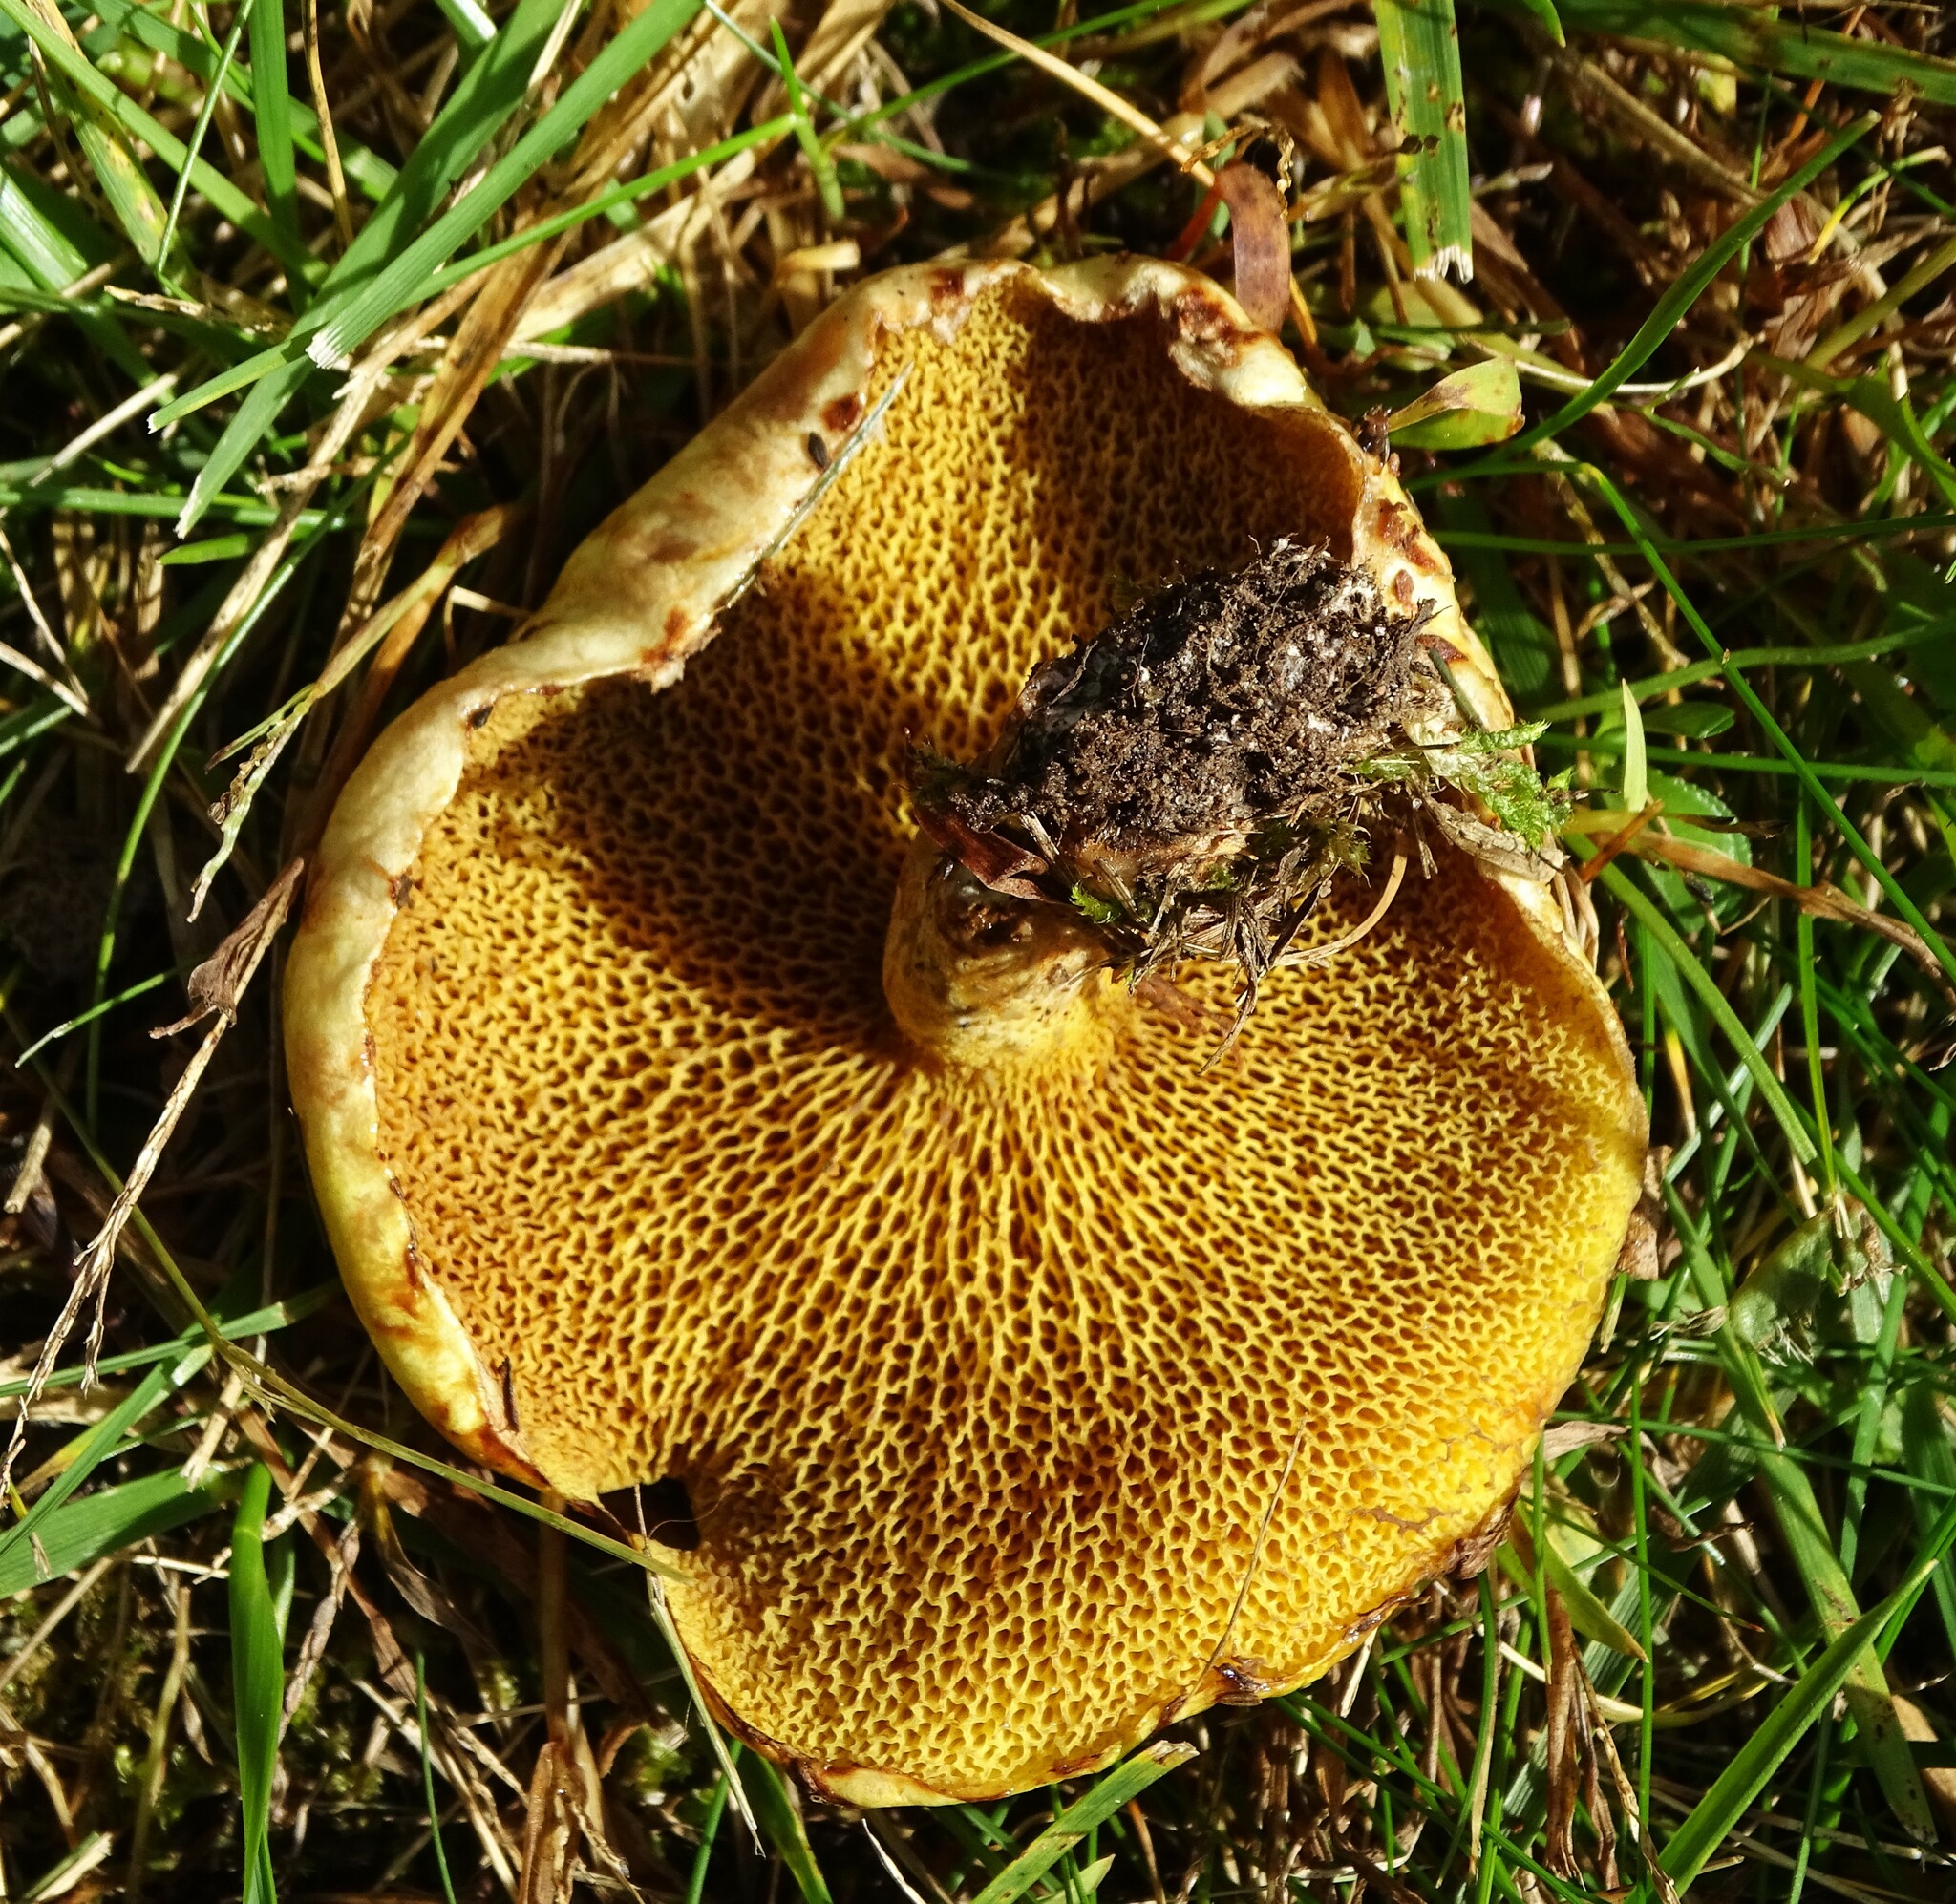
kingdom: Fungi
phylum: Basidiomycota
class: Agaricomycetes
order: Boletales
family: Suillaceae
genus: Suillus
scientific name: Suillus americanus
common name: Chicken fat mushroom
